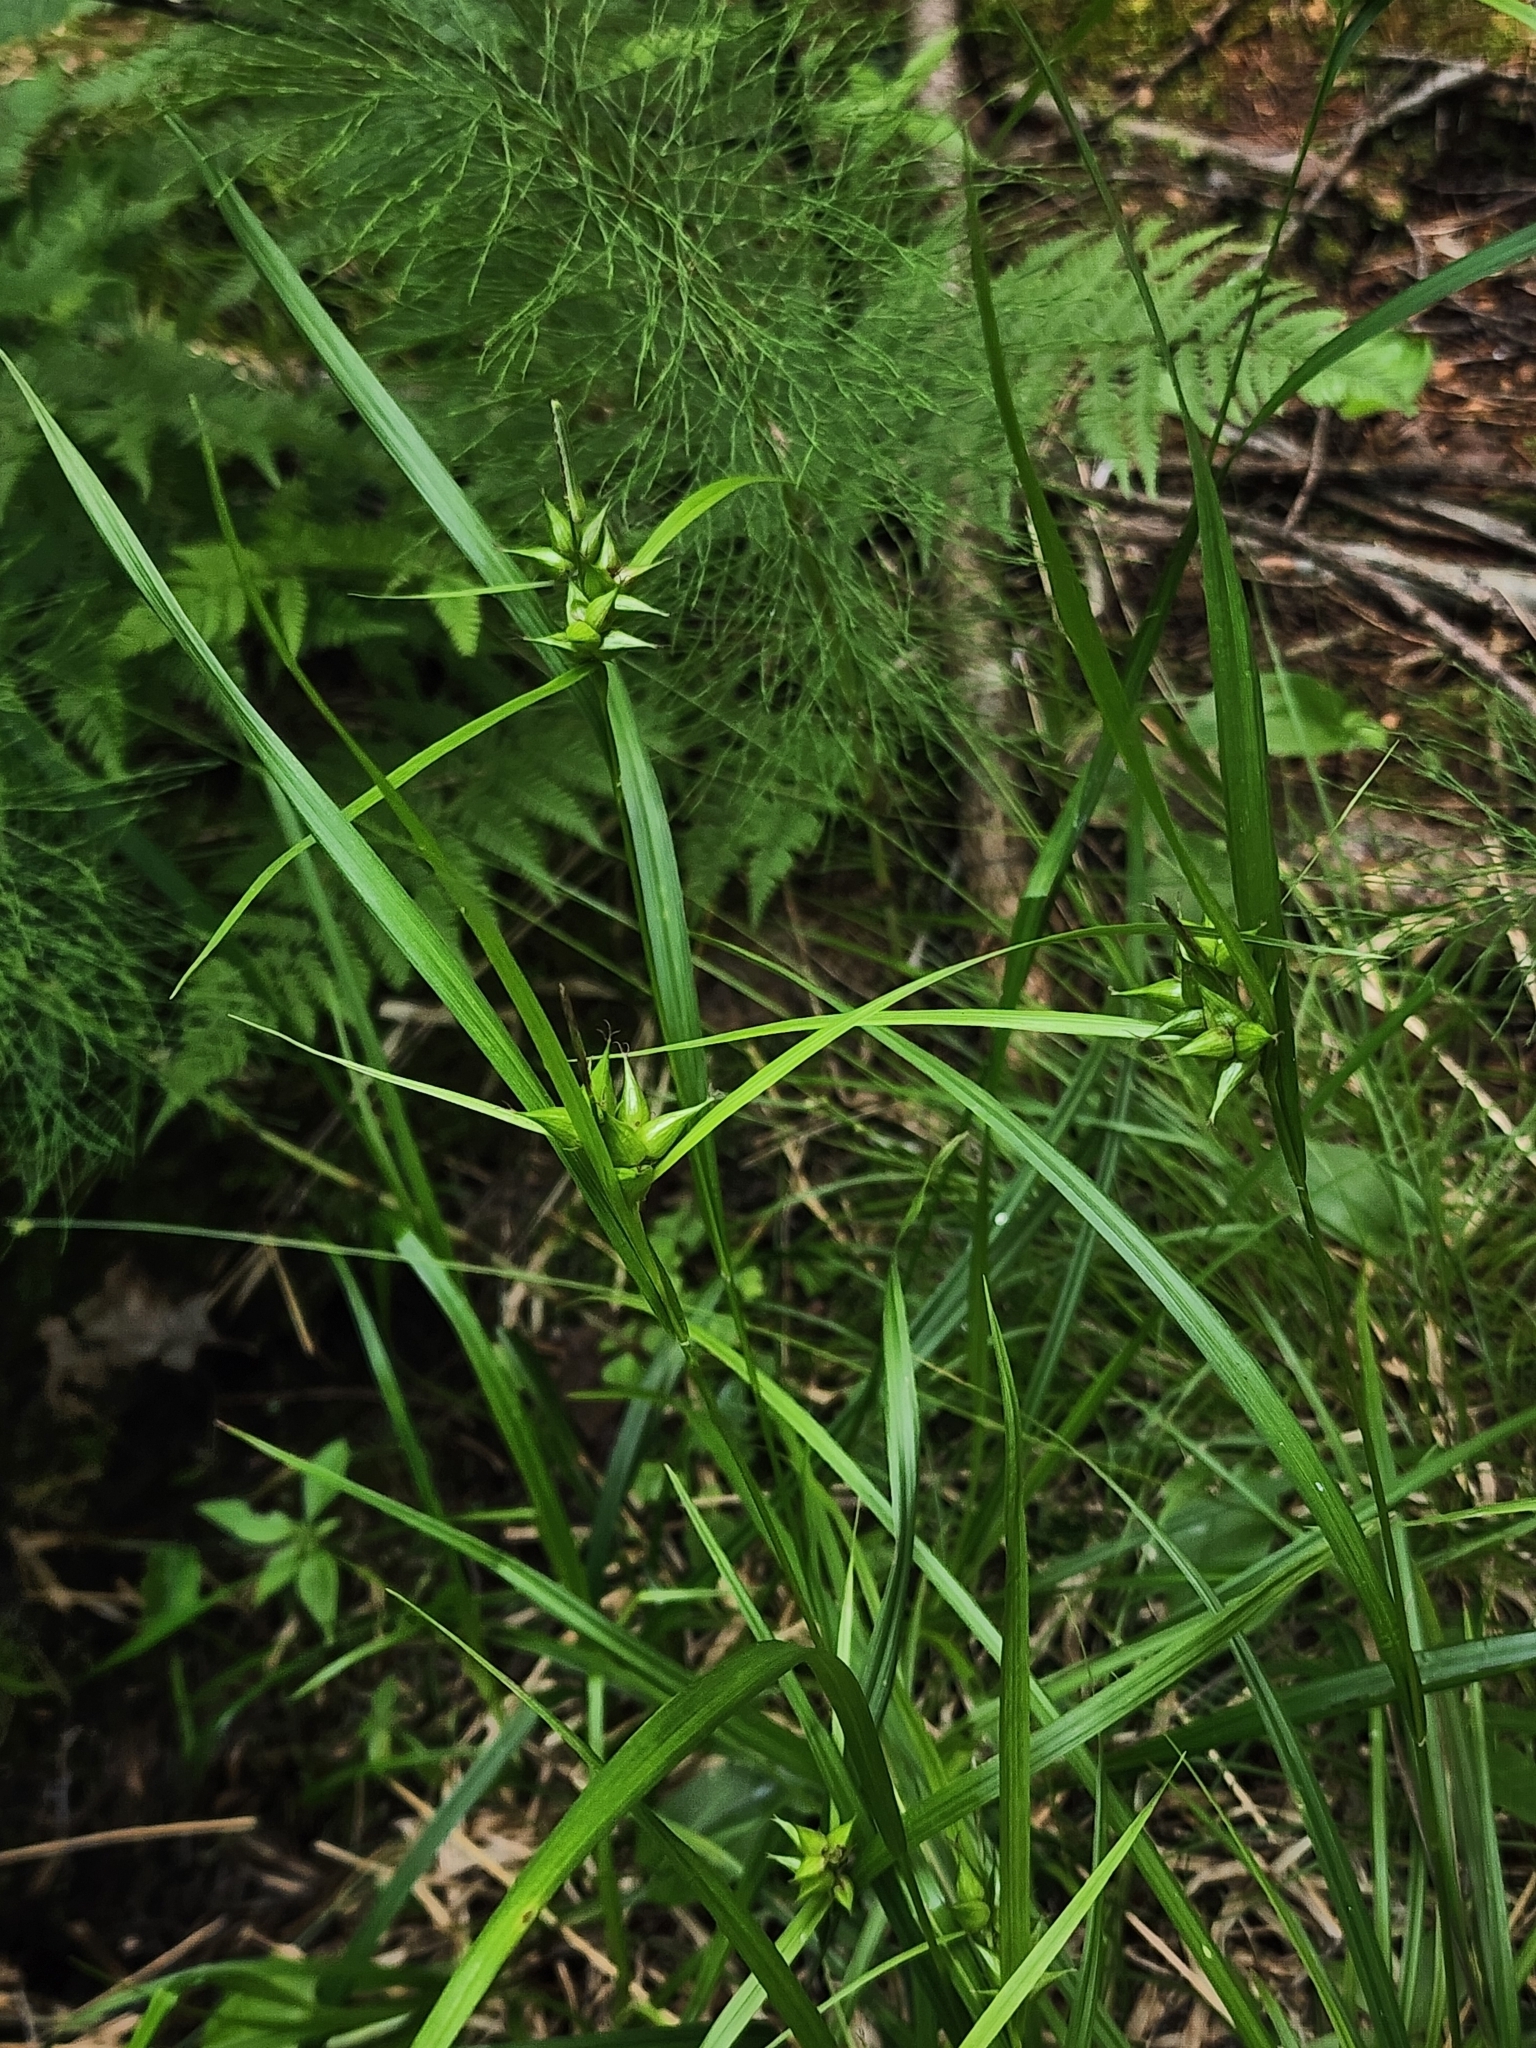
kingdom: Plantae
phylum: Tracheophyta
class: Liliopsida
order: Poales
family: Cyperaceae
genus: Carex
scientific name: Carex intumescens
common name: Greater bladder sedge
